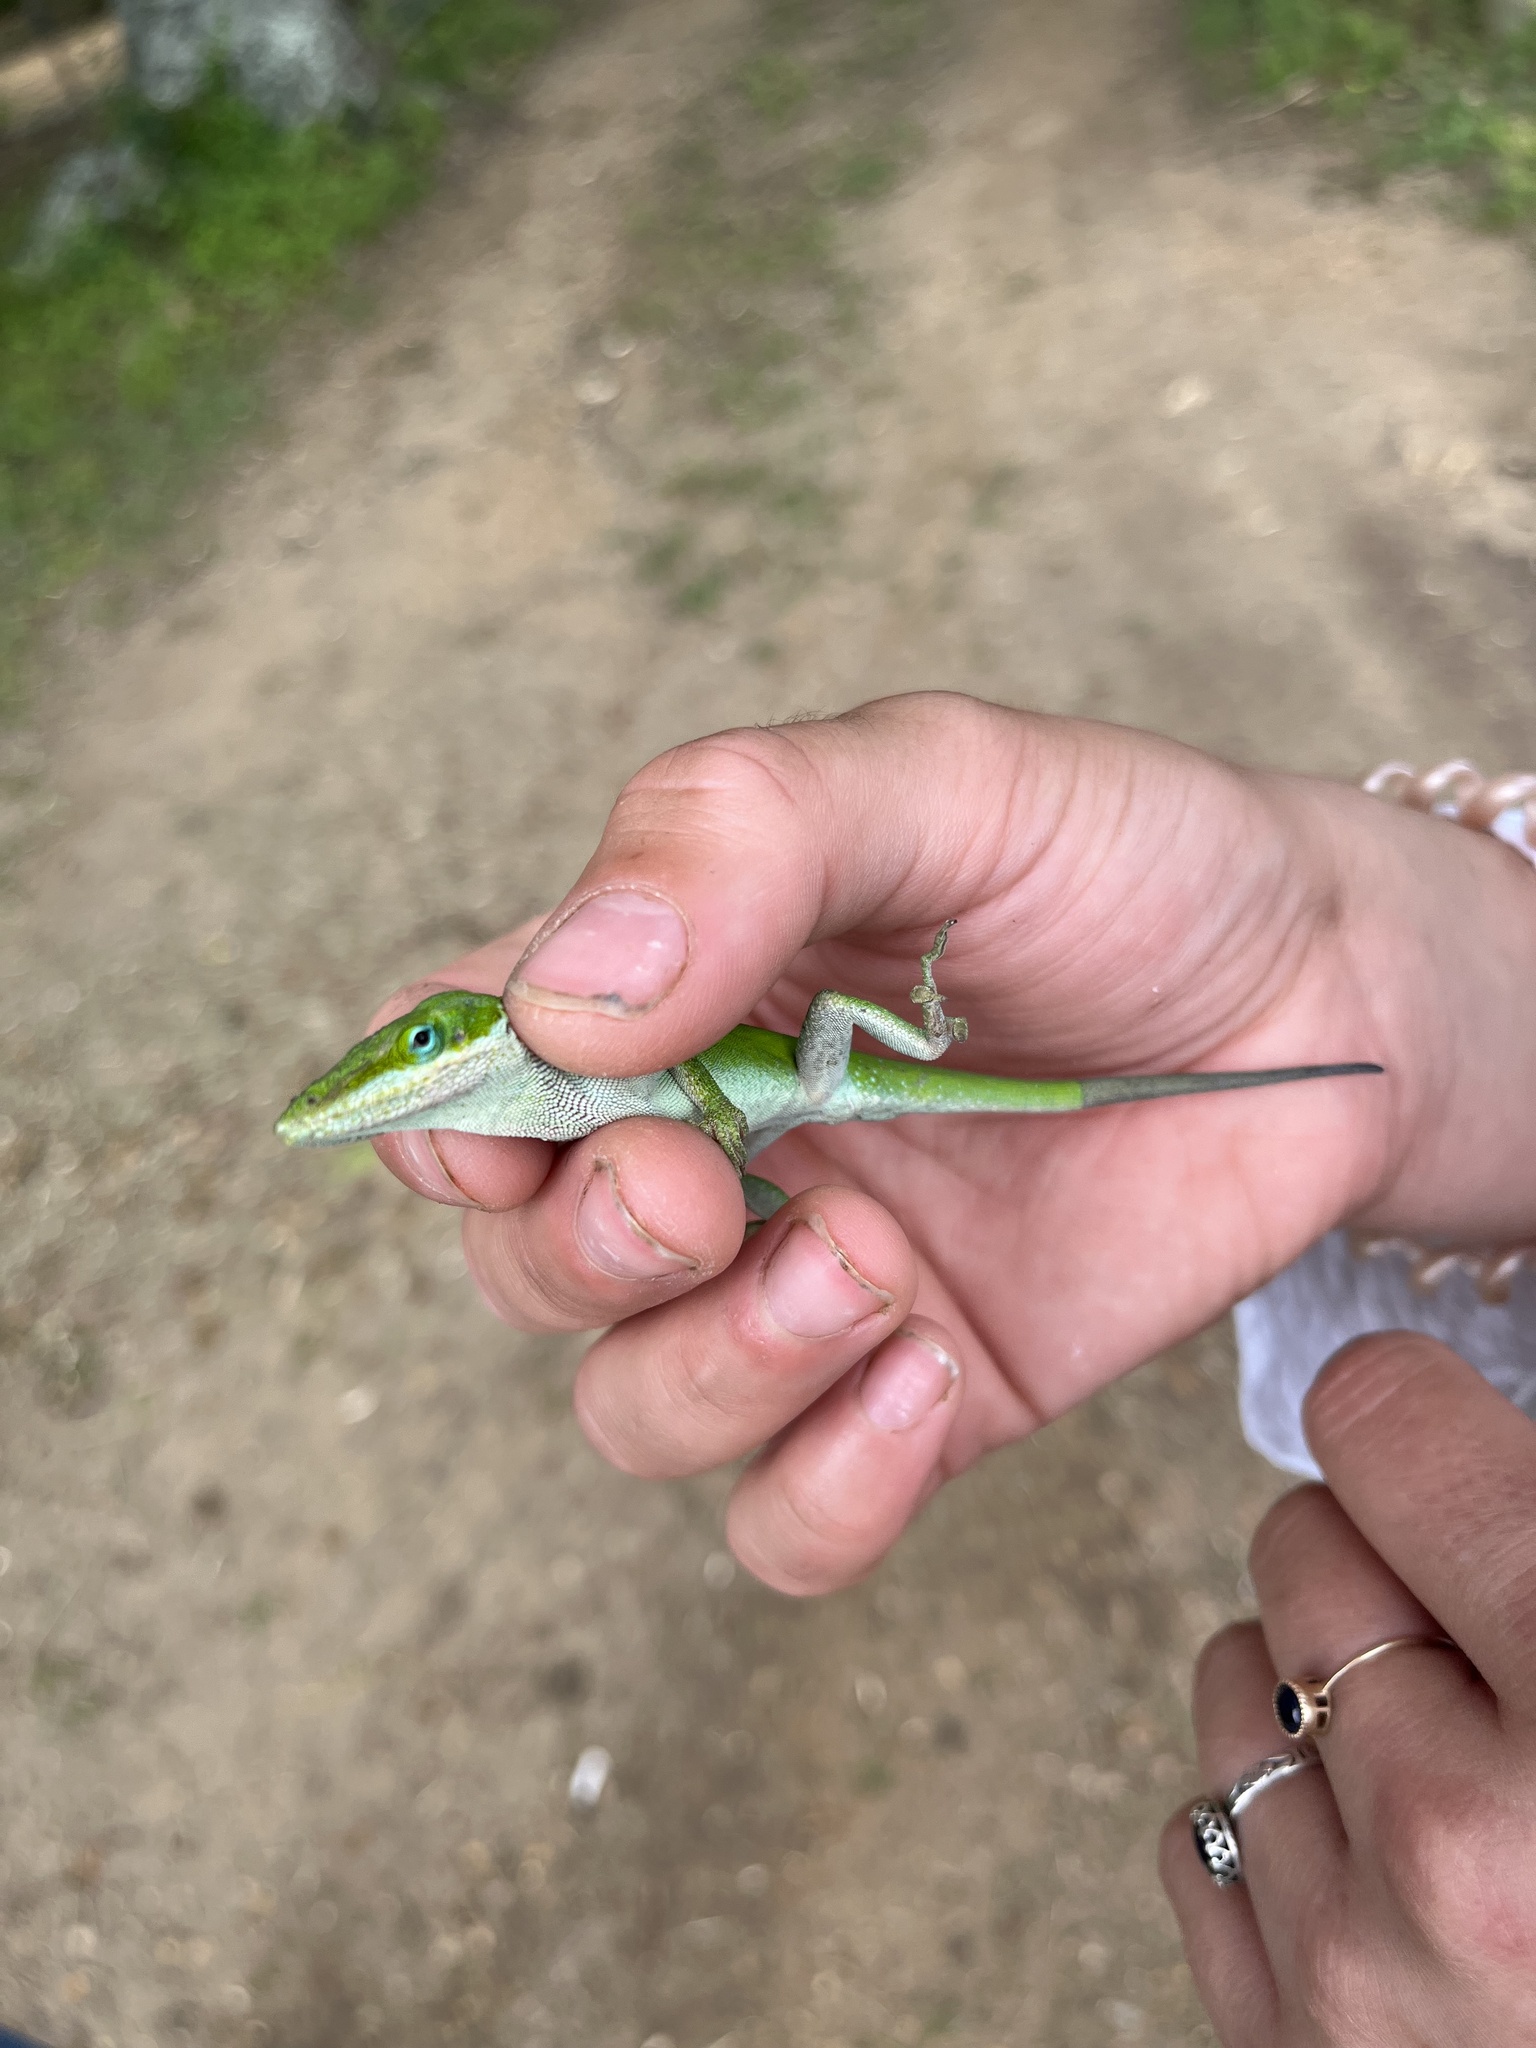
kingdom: Animalia
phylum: Chordata
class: Squamata
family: Dactyloidae
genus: Anolis
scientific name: Anolis carolinensis
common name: Green anole
